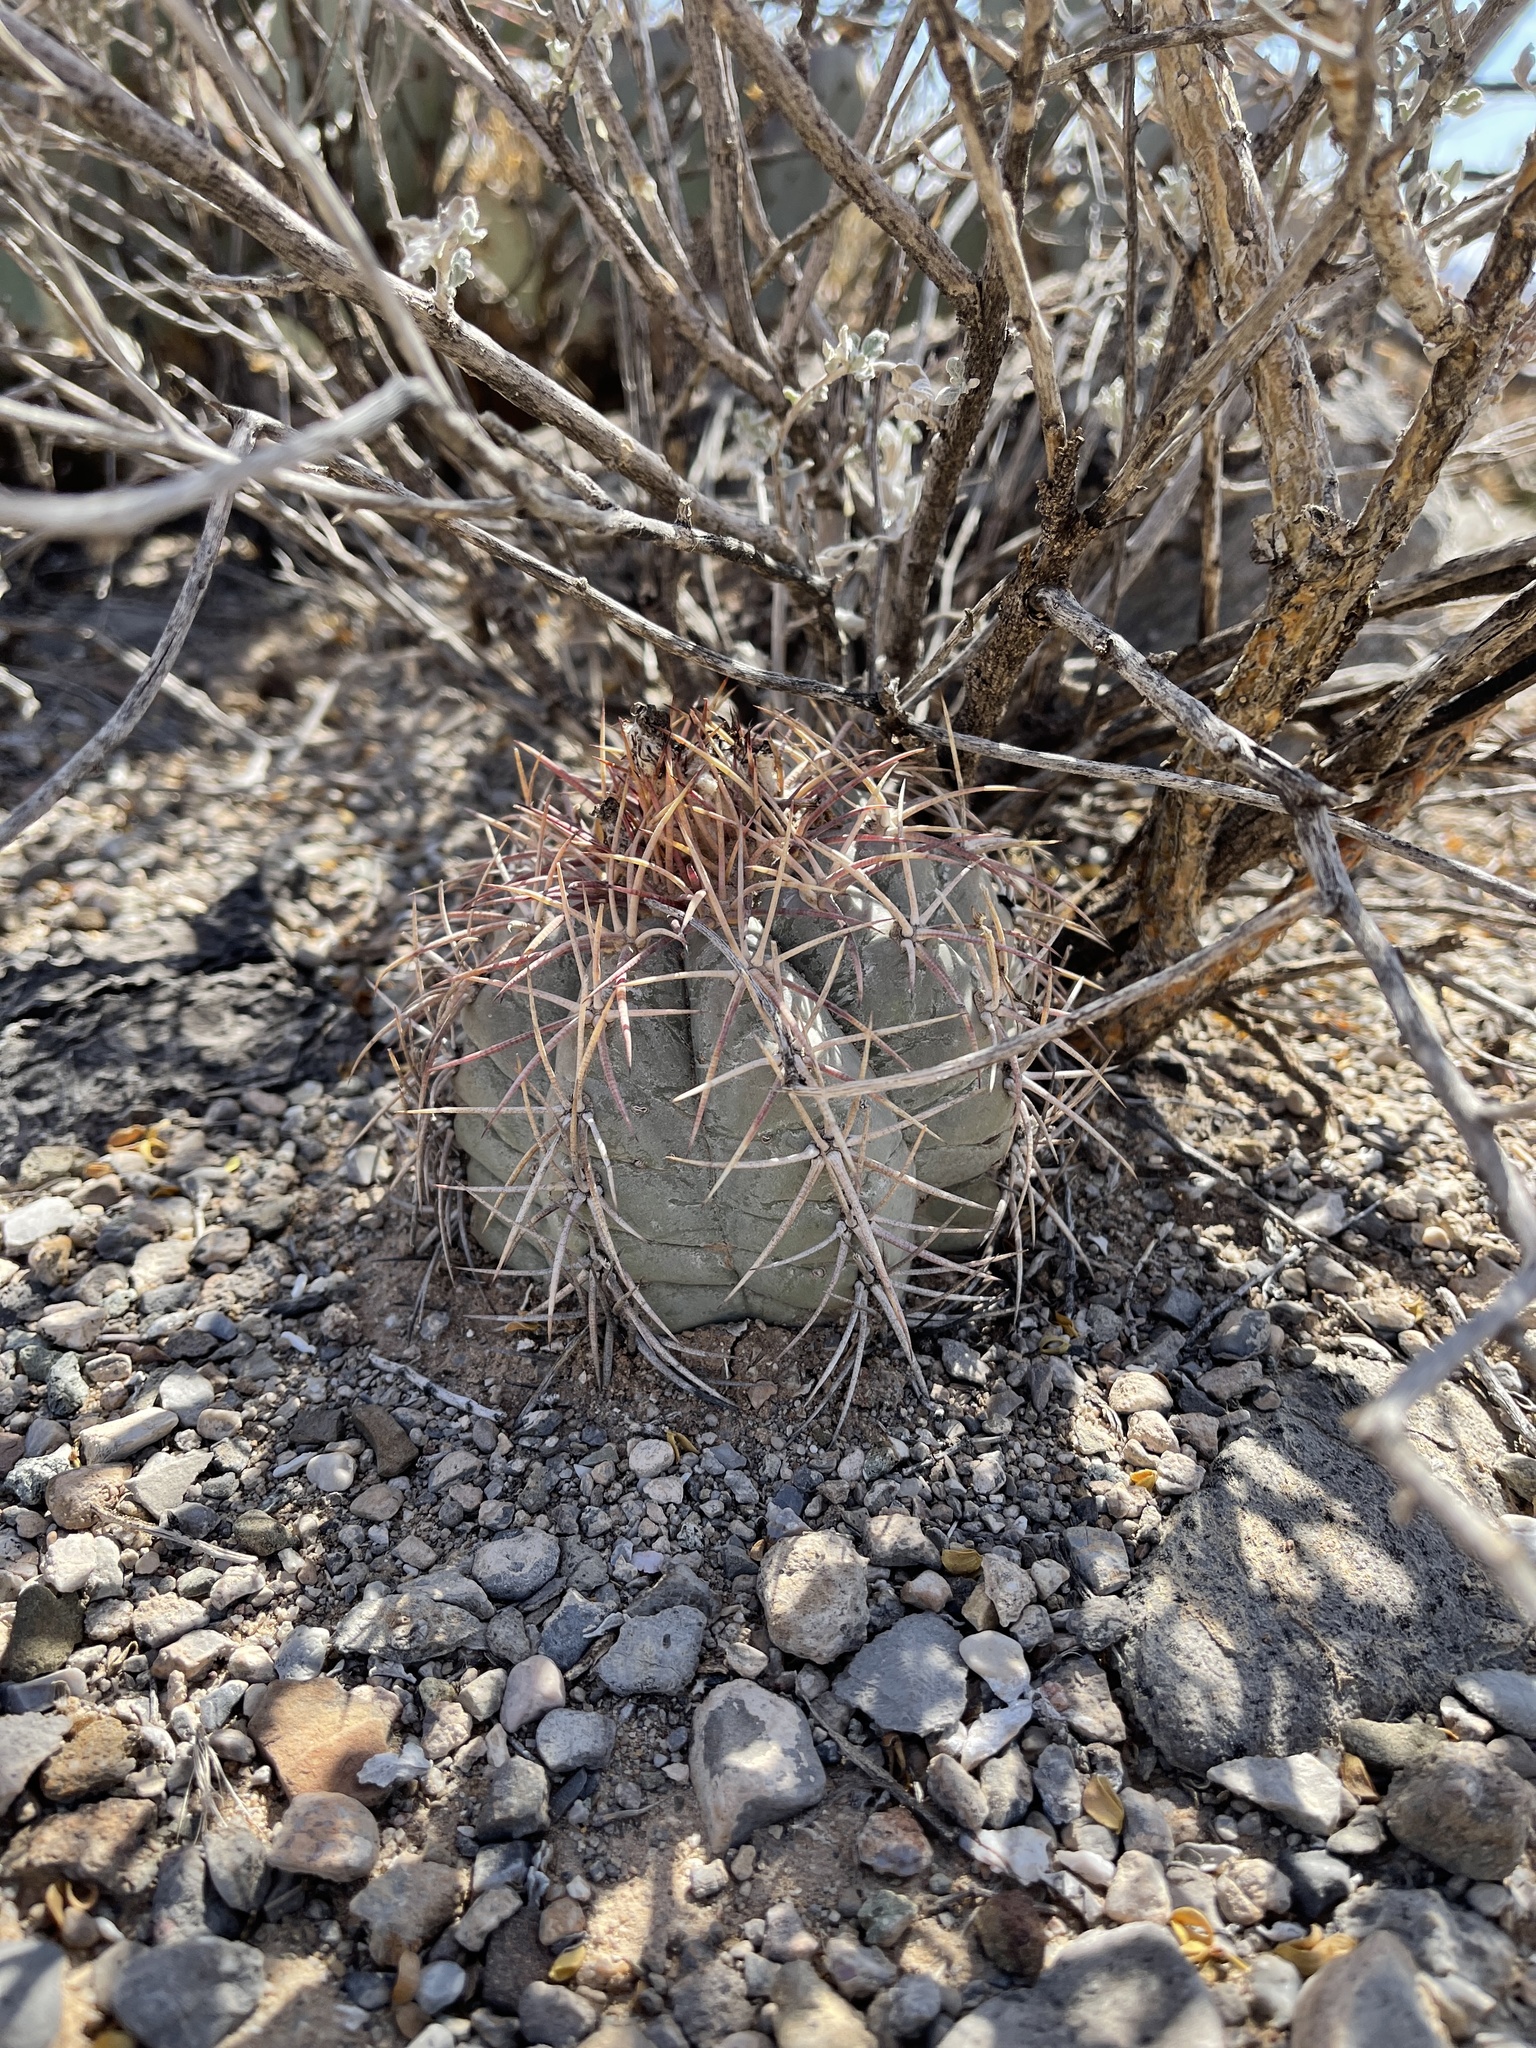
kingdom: Plantae
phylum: Tracheophyta
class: Magnoliopsida
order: Caryophyllales
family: Cactaceae
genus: Echinocactus
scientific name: Echinocactus horizonthalonius
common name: Devilshead
